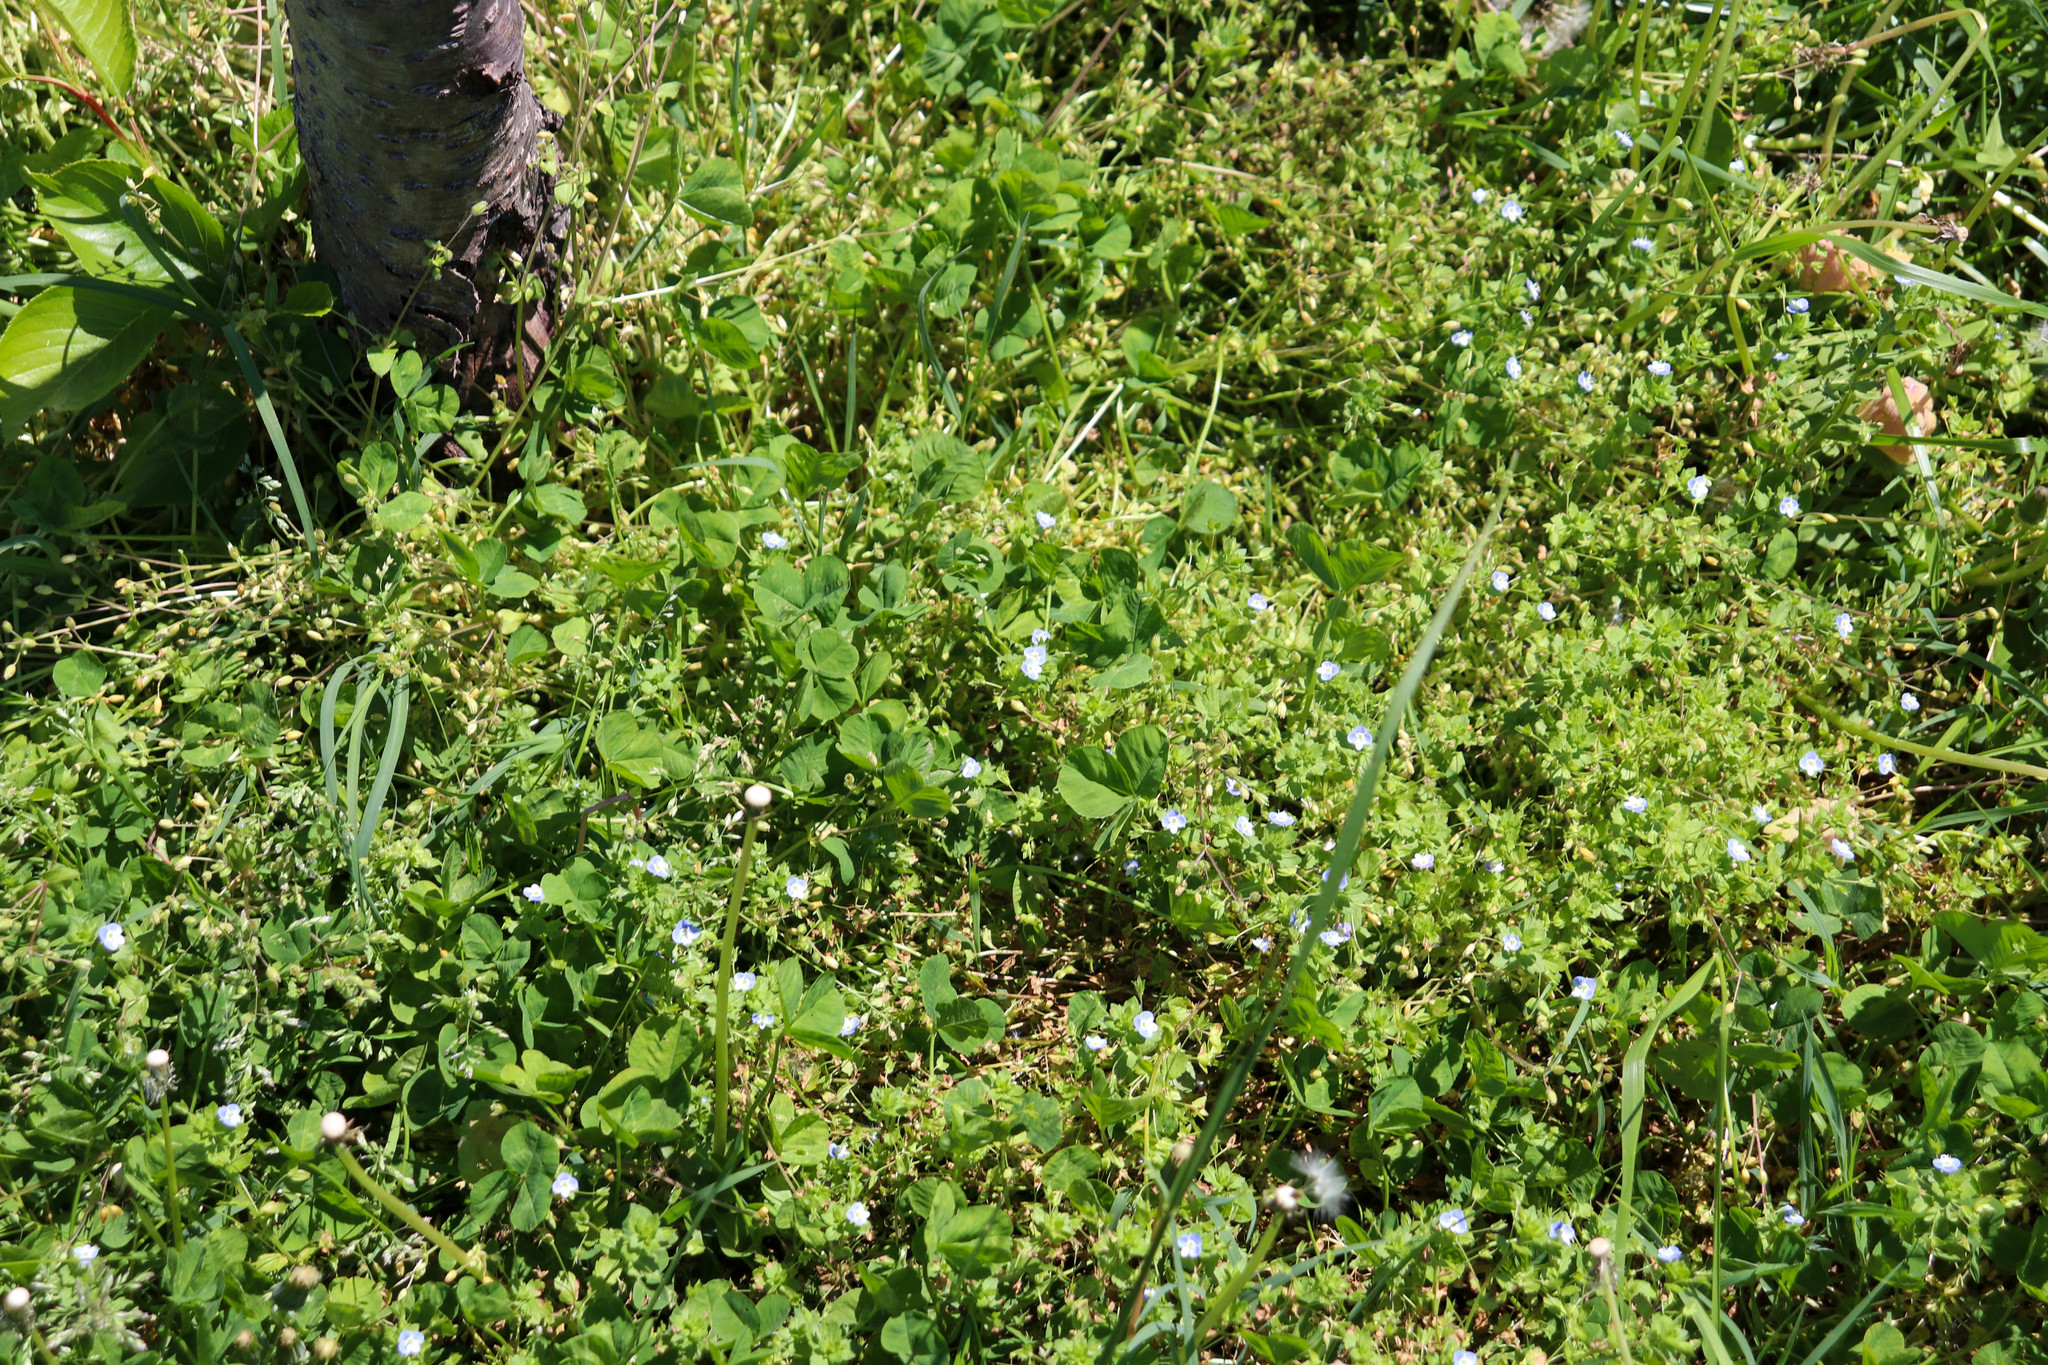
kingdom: Plantae
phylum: Tracheophyta
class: Magnoliopsida
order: Lamiales
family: Plantaginaceae
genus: Veronica
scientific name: Veronica persica
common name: Common field-speedwell
